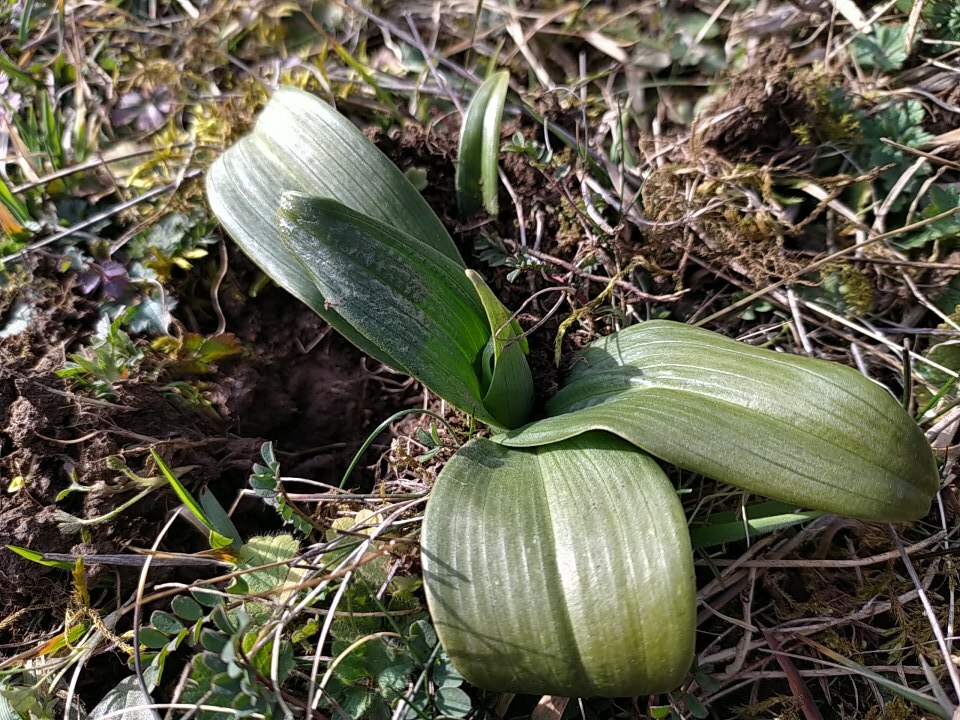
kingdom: Plantae
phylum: Tracheophyta
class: Liliopsida
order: Asparagales
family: Orchidaceae
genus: Himantoglossum
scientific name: Himantoglossum hircinum
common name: Lizard orchid
